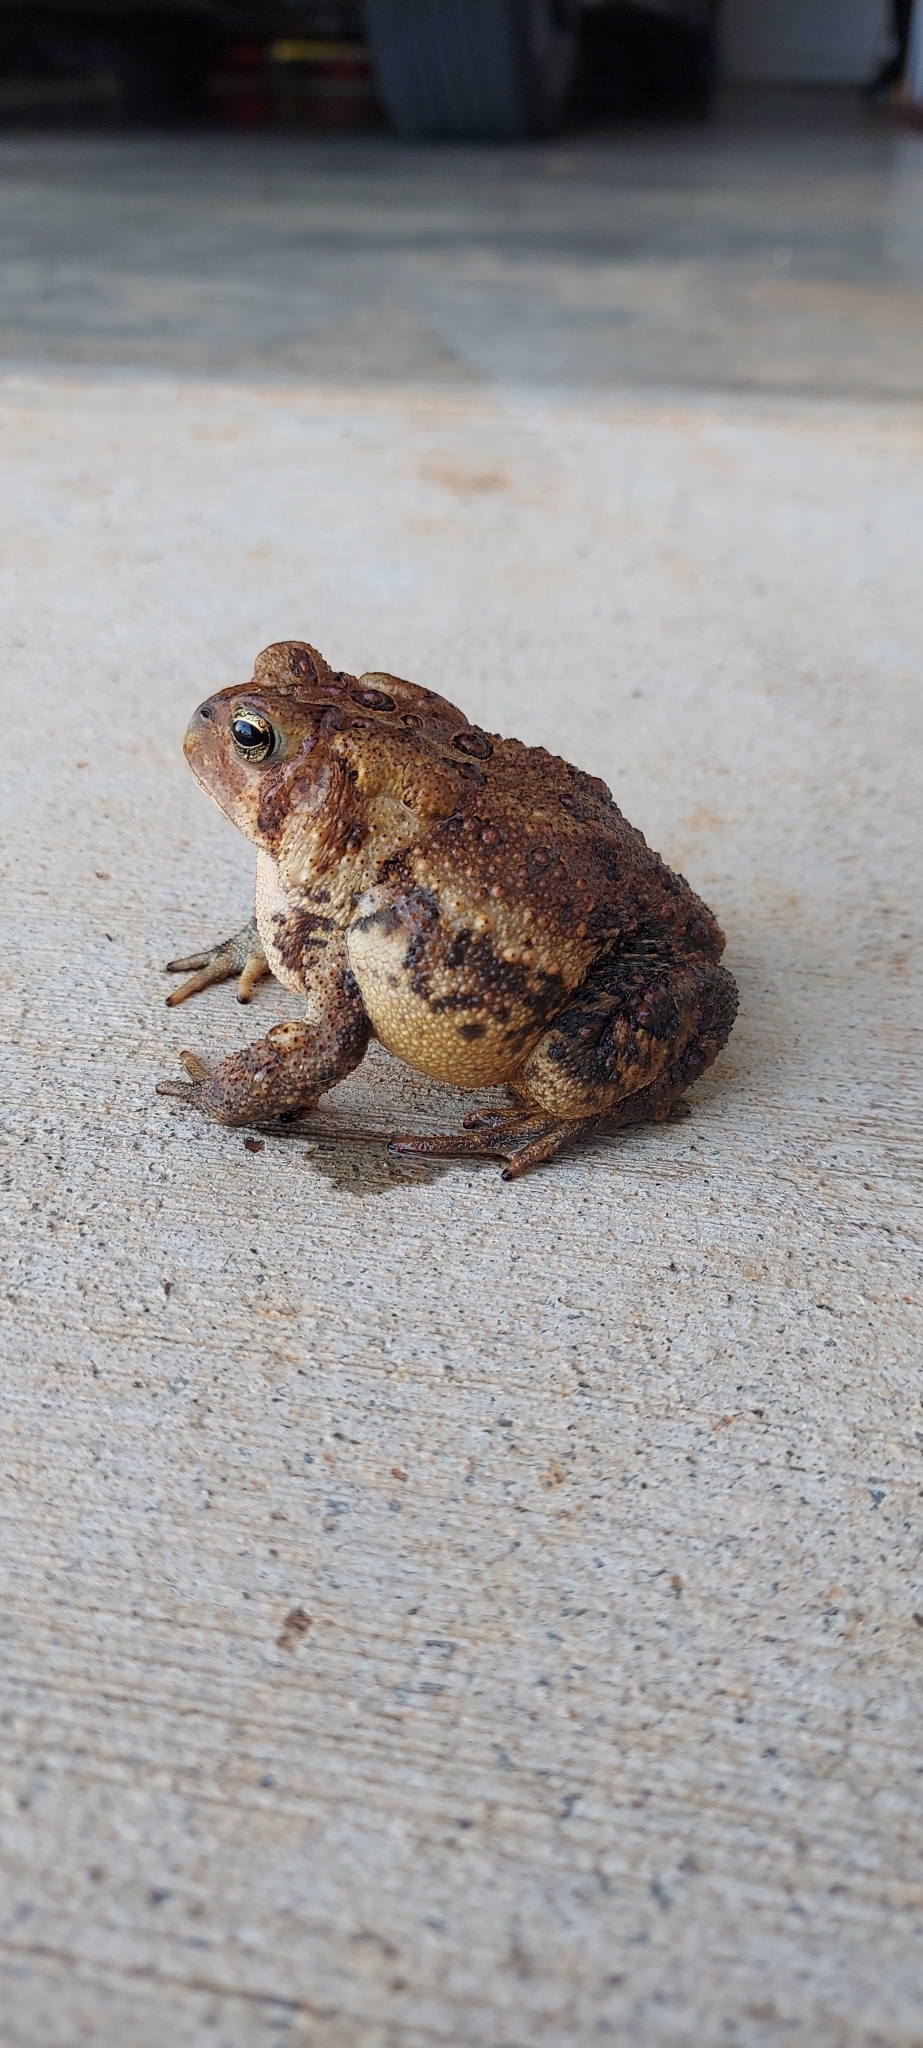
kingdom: Animalia
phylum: Chordata
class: Amphibia
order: Anura
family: Bufonidae
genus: Anaxyrus
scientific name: Anaxyrus americanus
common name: American toad
